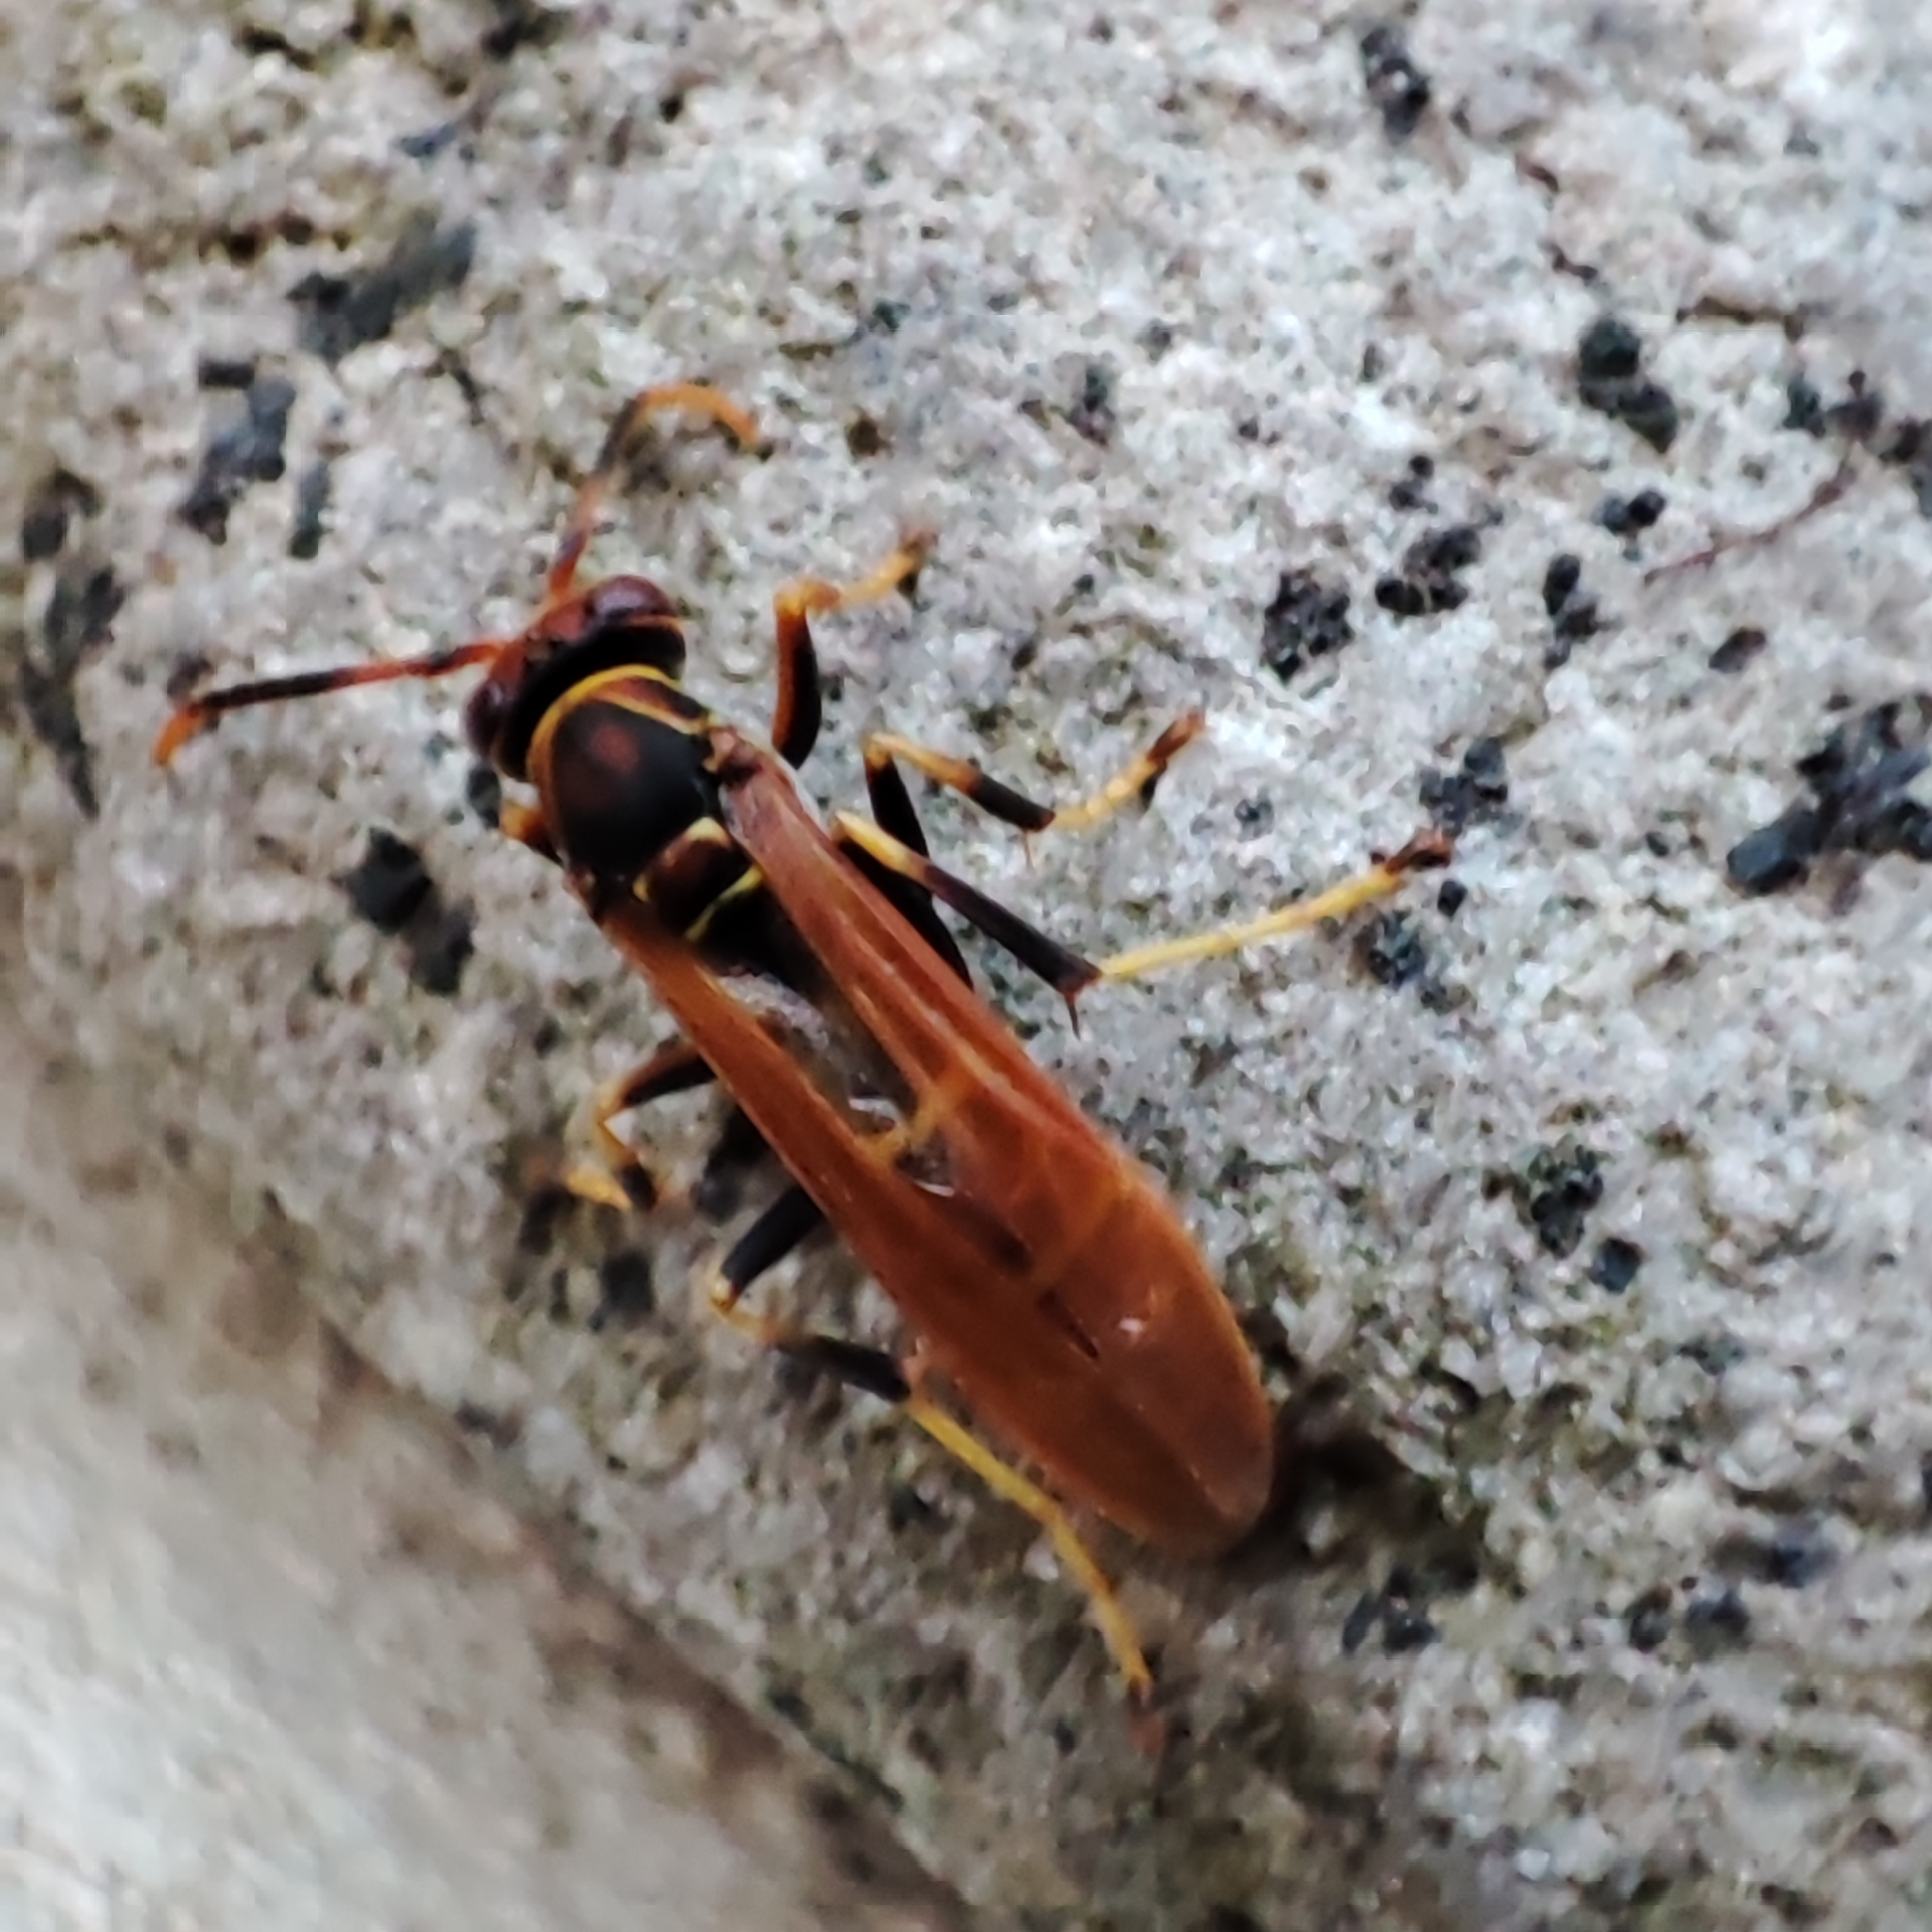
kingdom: Animalia
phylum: Arthropoda
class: Insecta
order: Hymenoptera
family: Eumenidae
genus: Polistes
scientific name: Polistes crinitus
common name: Jack spaniard
